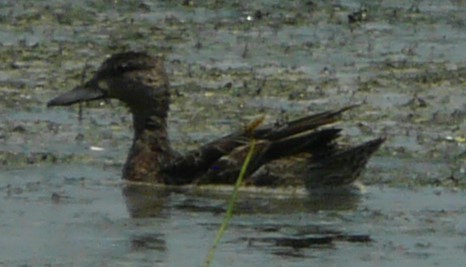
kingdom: Animalia
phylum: Chordata
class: Aves
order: Anseriformes
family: Anatidae
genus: Spatula
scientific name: Spatula discors
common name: Blue-winged teal
